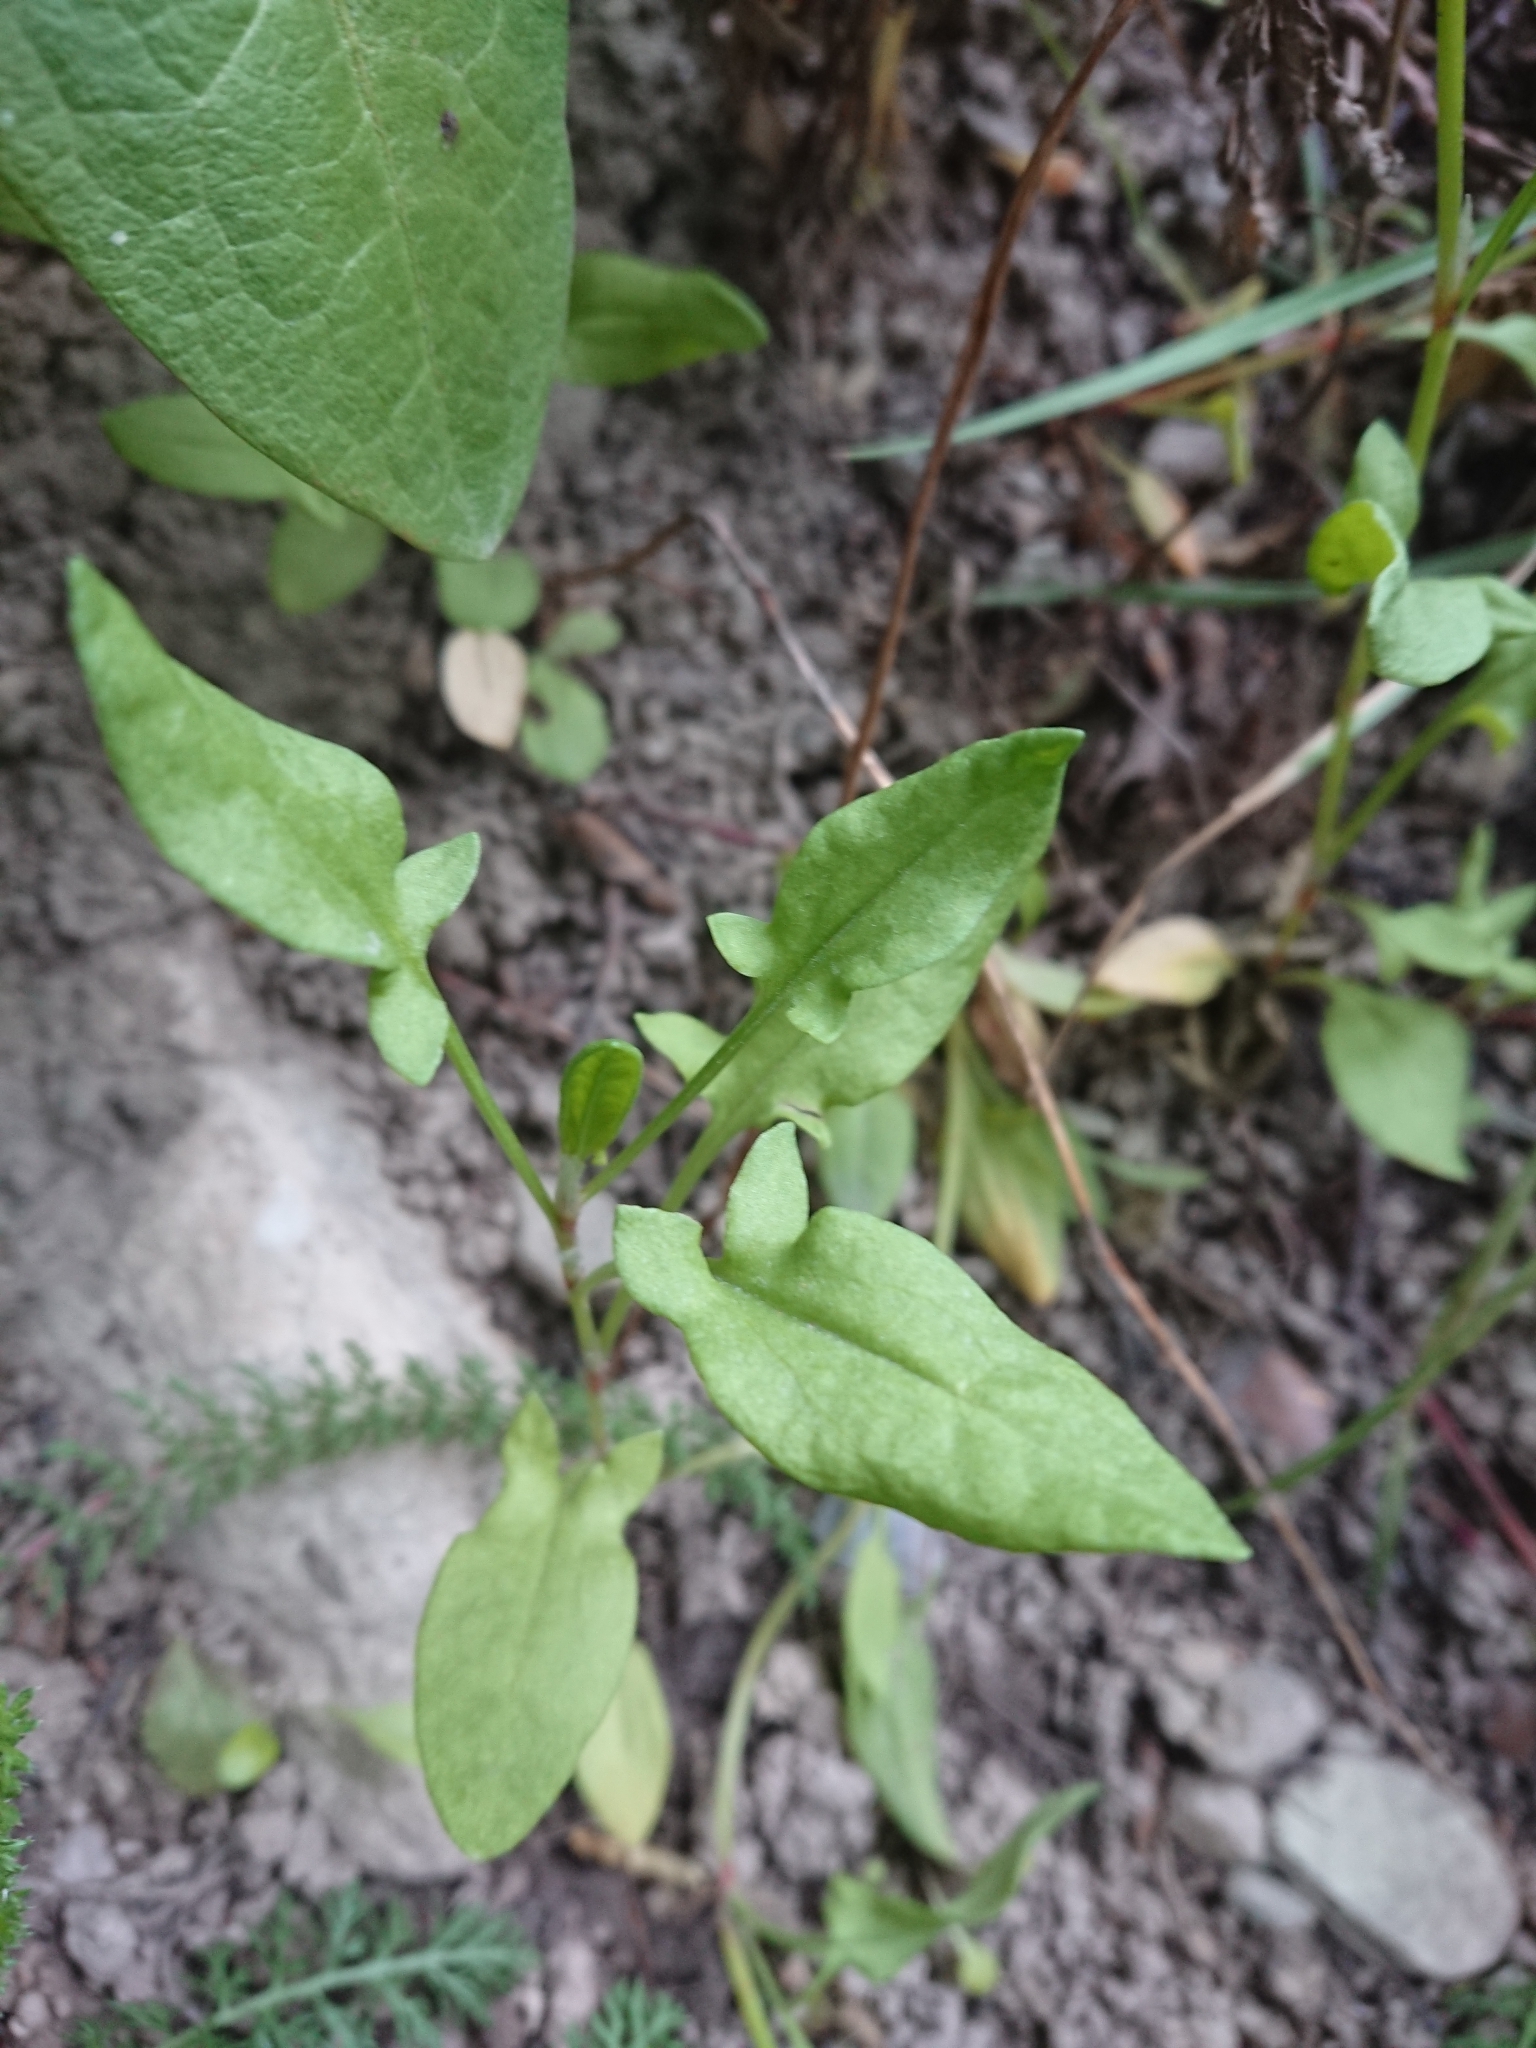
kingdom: Plantae
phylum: Tracheophyta
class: Magnoliopsida
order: Caryophyllales
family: Polygonaceae
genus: Rumex
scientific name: Rumex acetosella
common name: Common sheep sorrel
